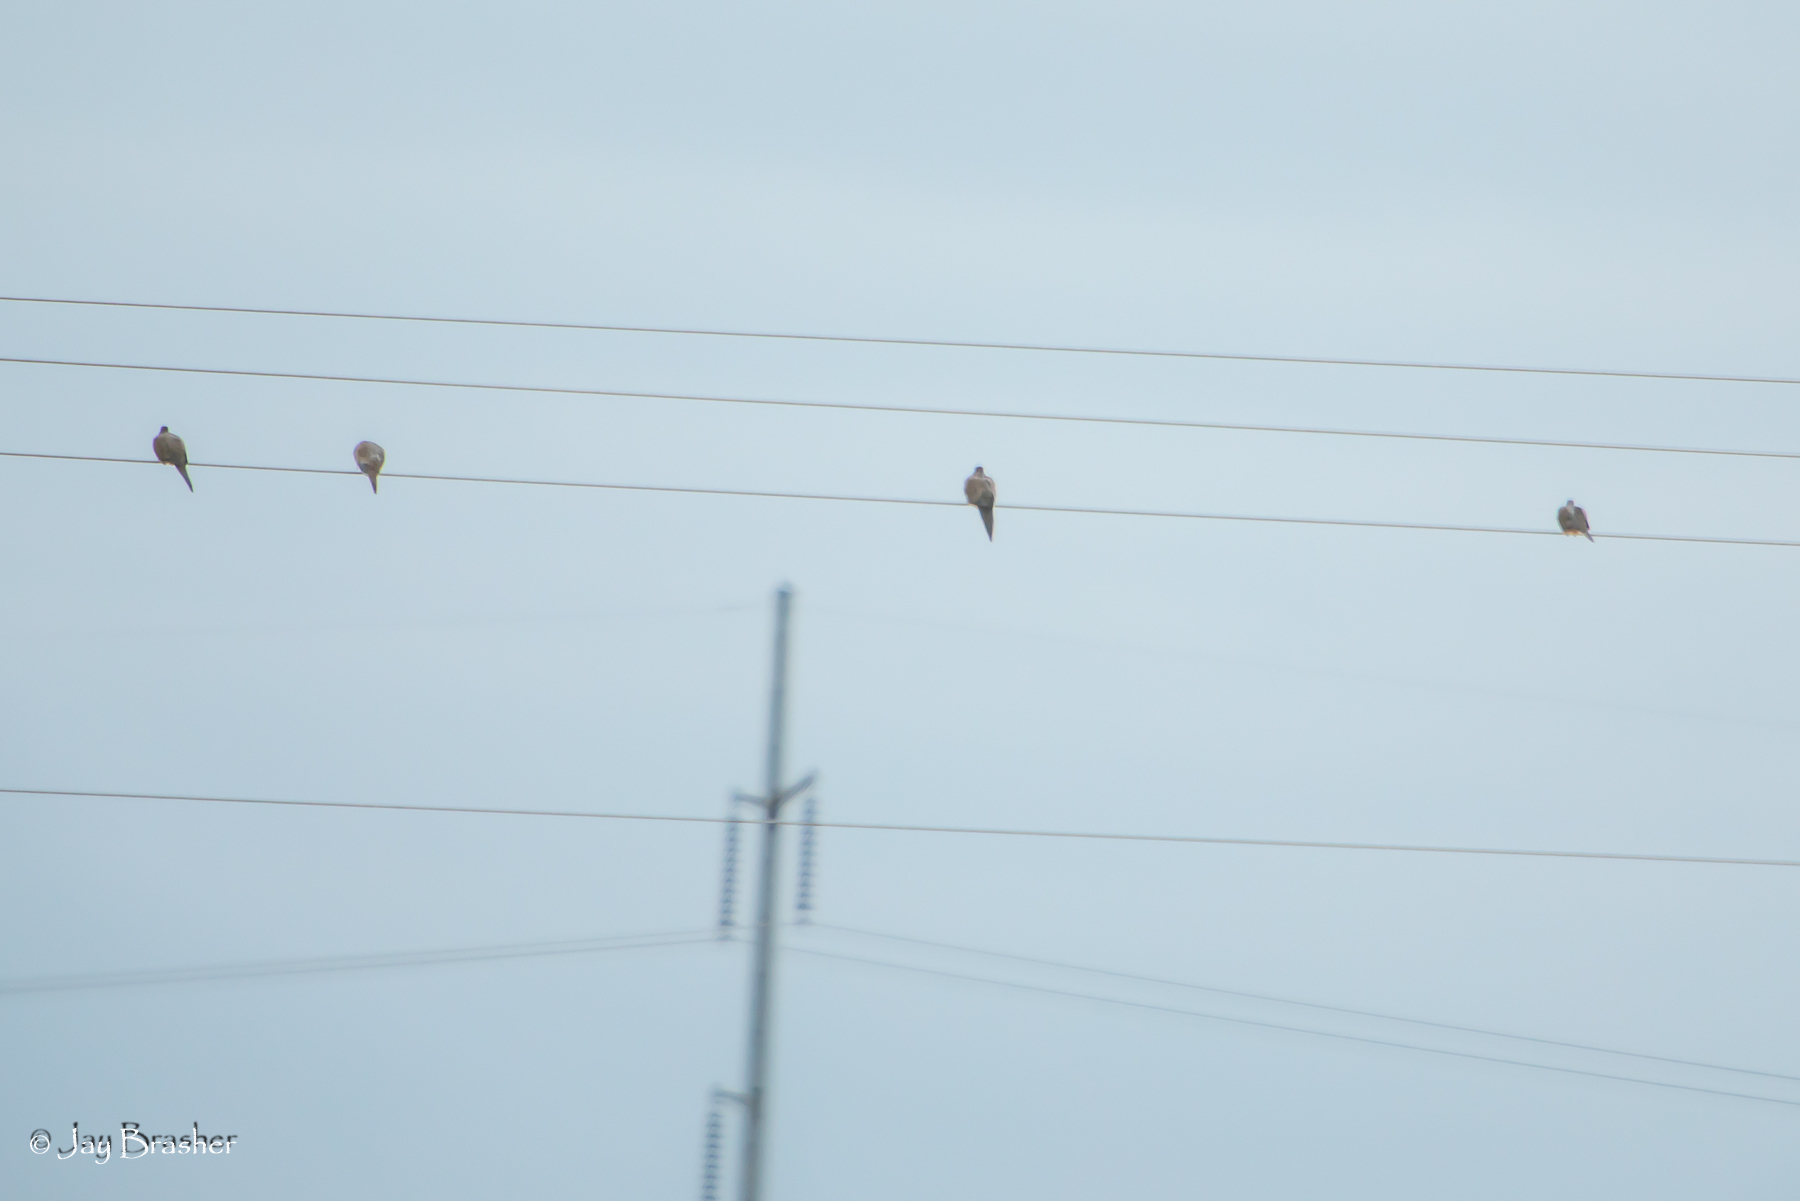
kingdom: Animalia
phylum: Chordata
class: Aves
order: Columbiformes
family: Columbidae
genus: Zenaida
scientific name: Zenaida macroura
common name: Mourning dove
